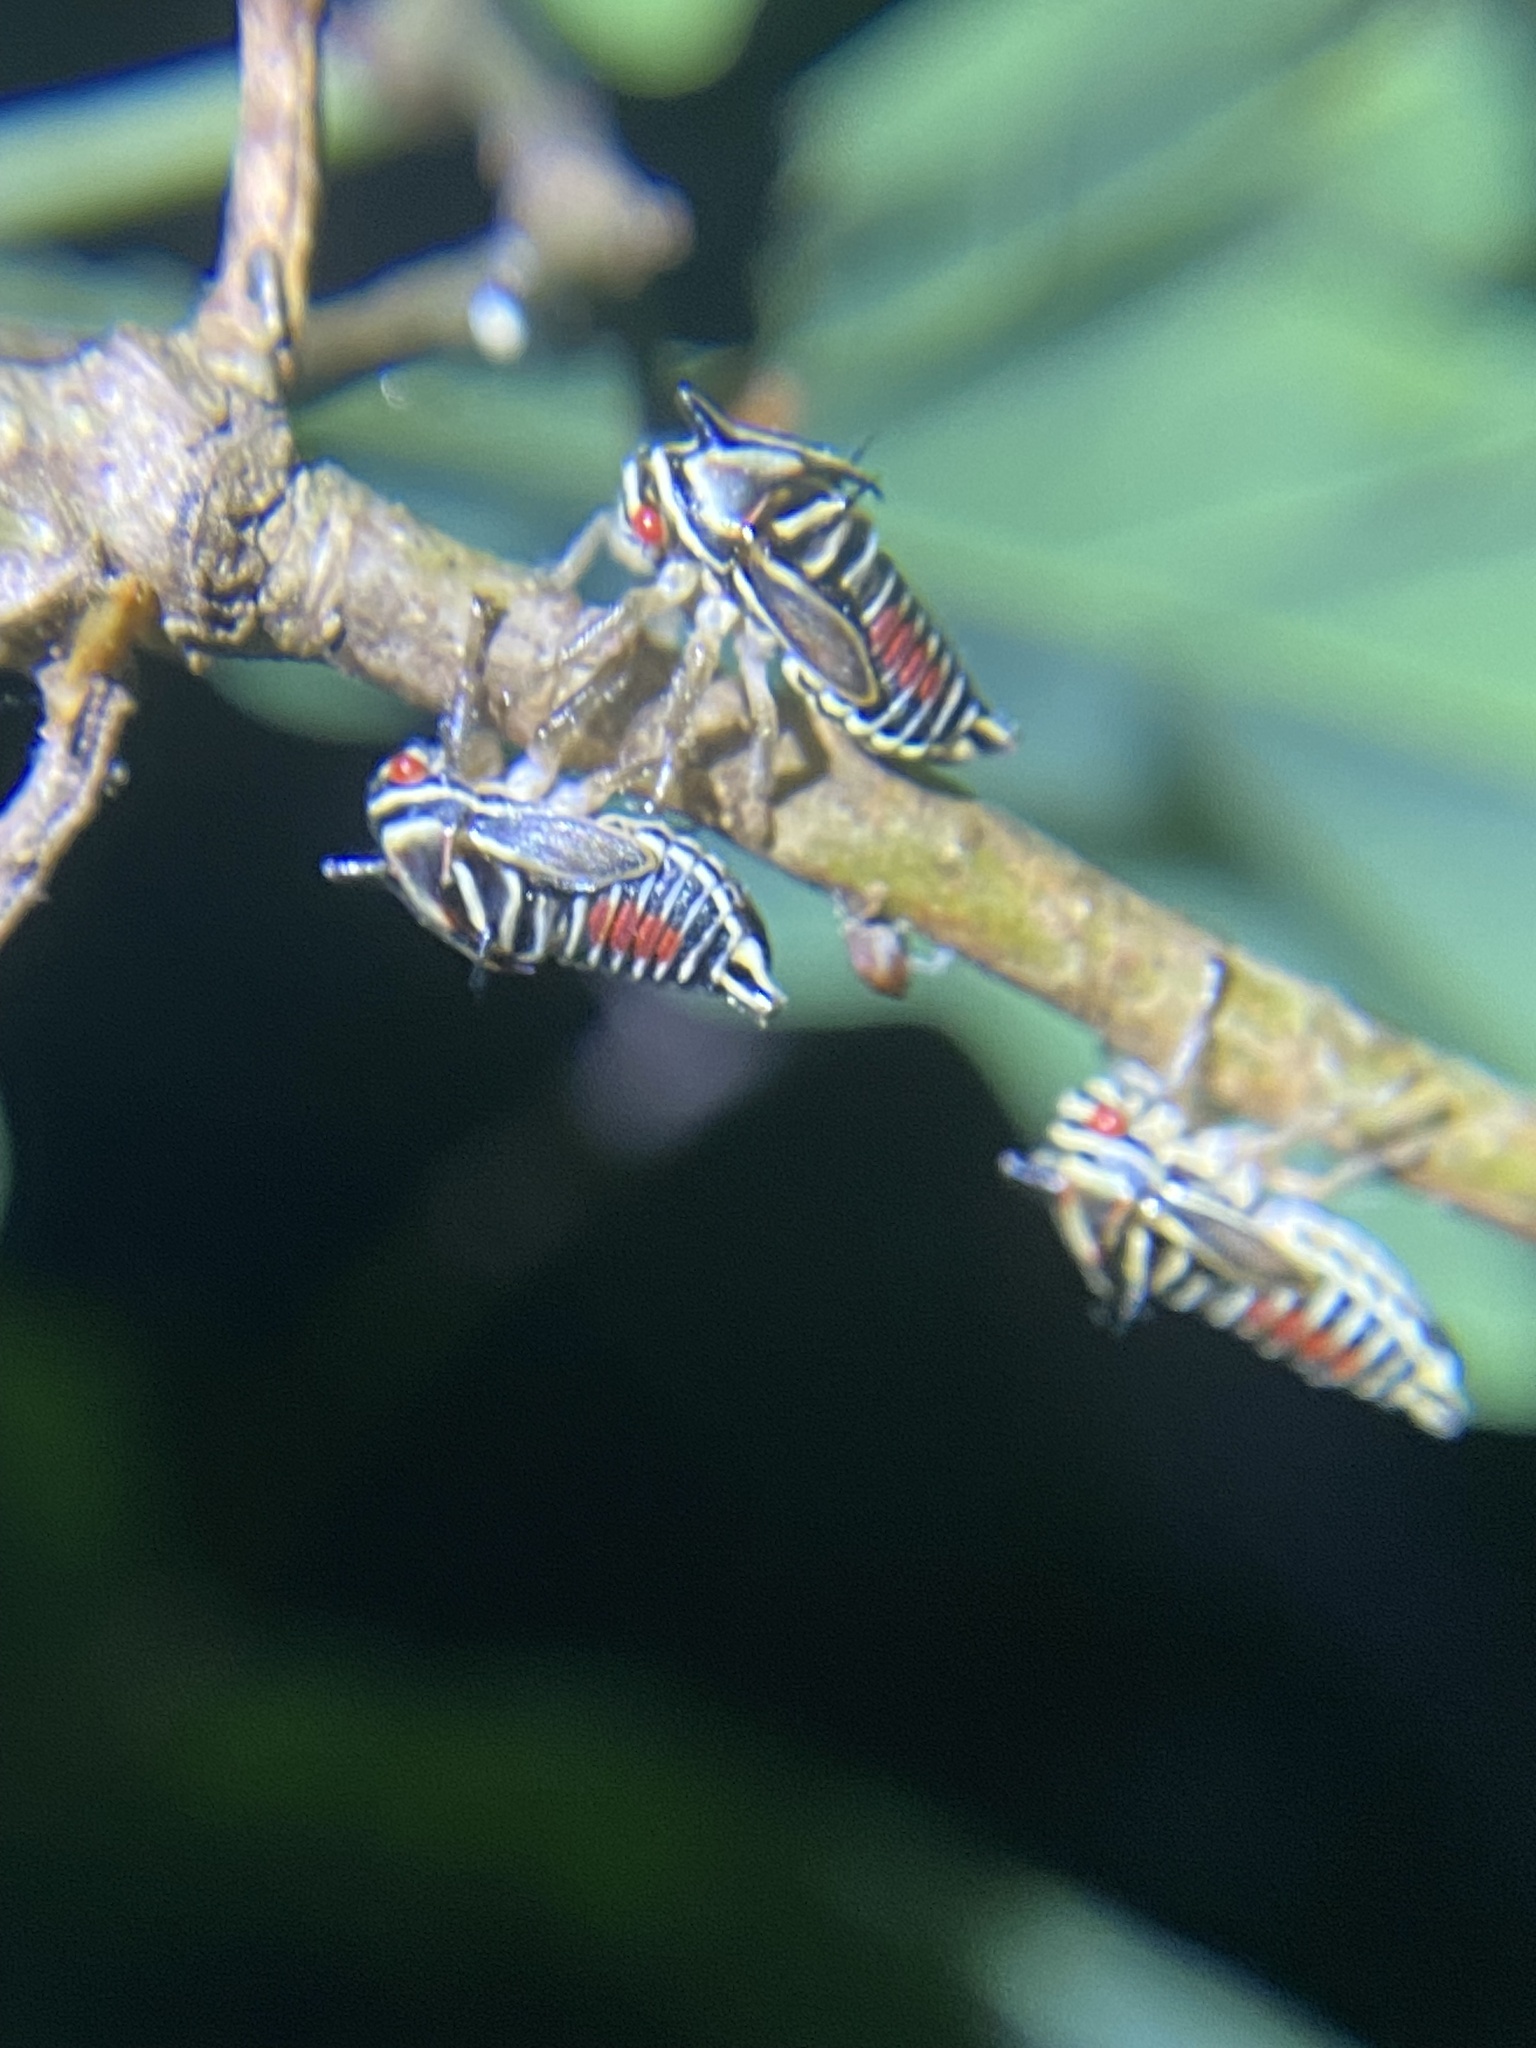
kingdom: Animalia
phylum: Arthropoda
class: Insecta
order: Hemiptera
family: Membracidae
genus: Platycotis
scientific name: Platycotis vittatus
